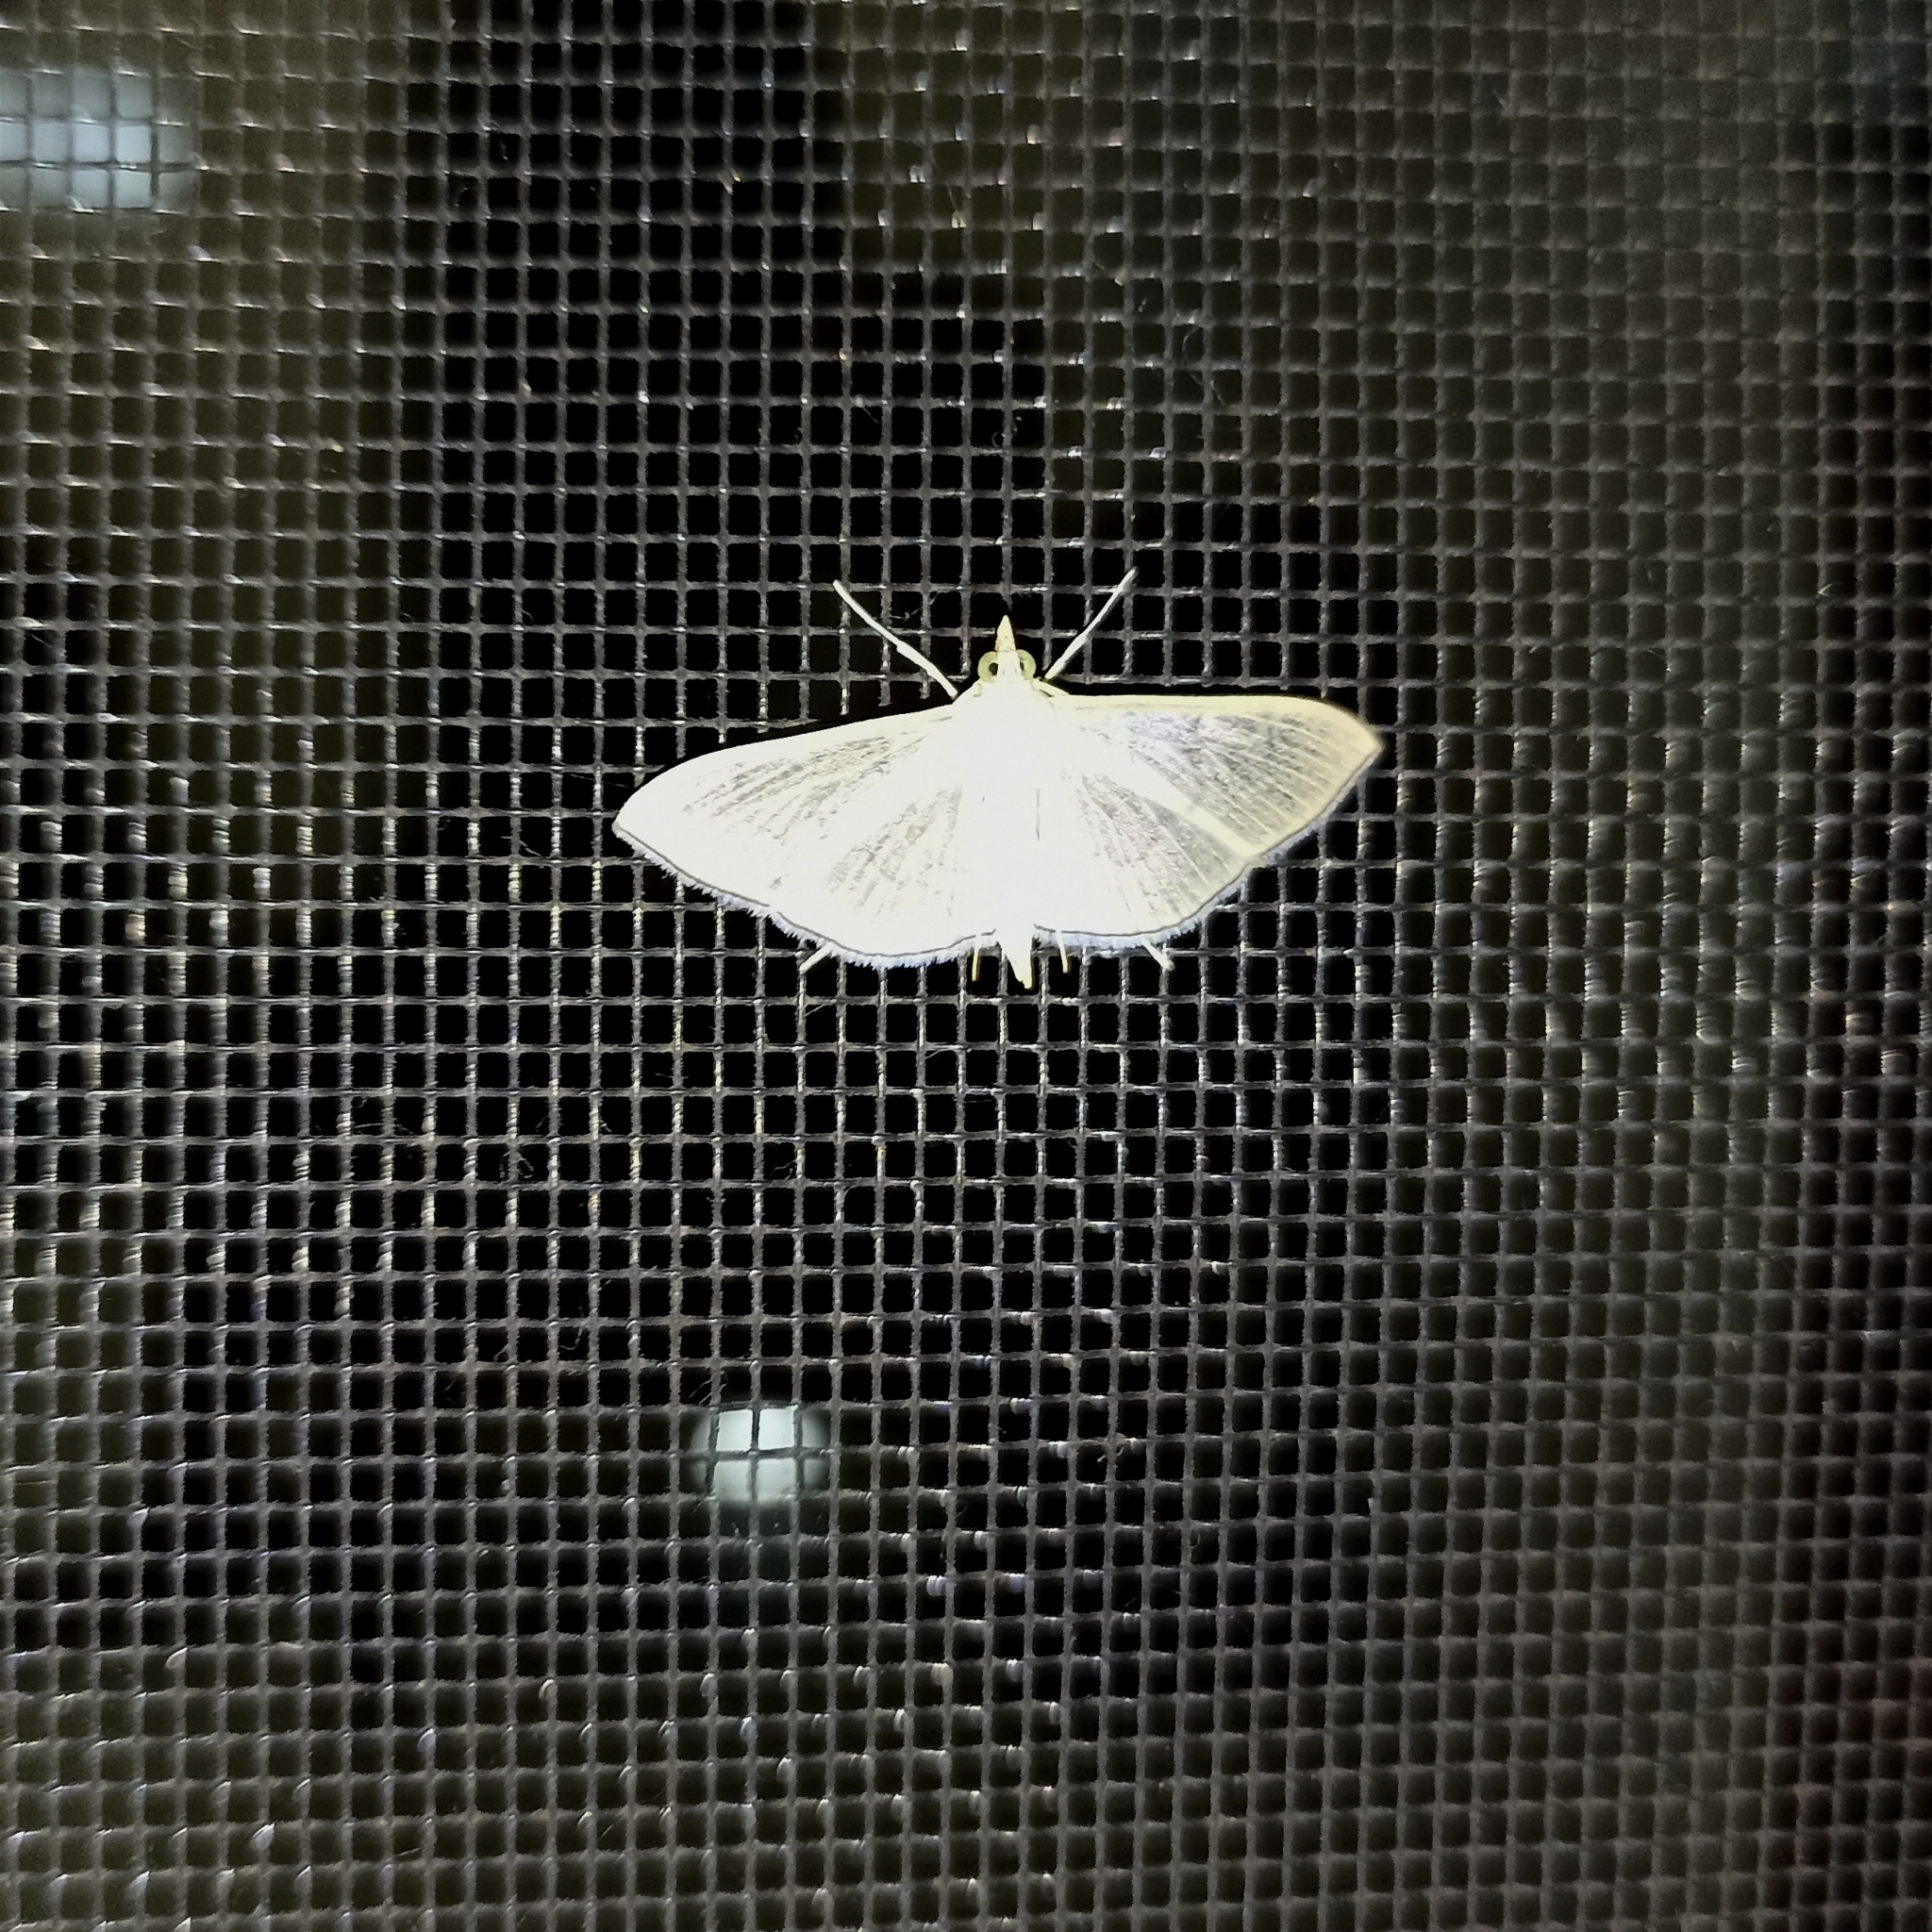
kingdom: Animalia
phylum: Arthropoda
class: Insecta
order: Lepidoptera
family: Crambidae
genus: Lamprophaia
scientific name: Lamprophaia ablactalis
